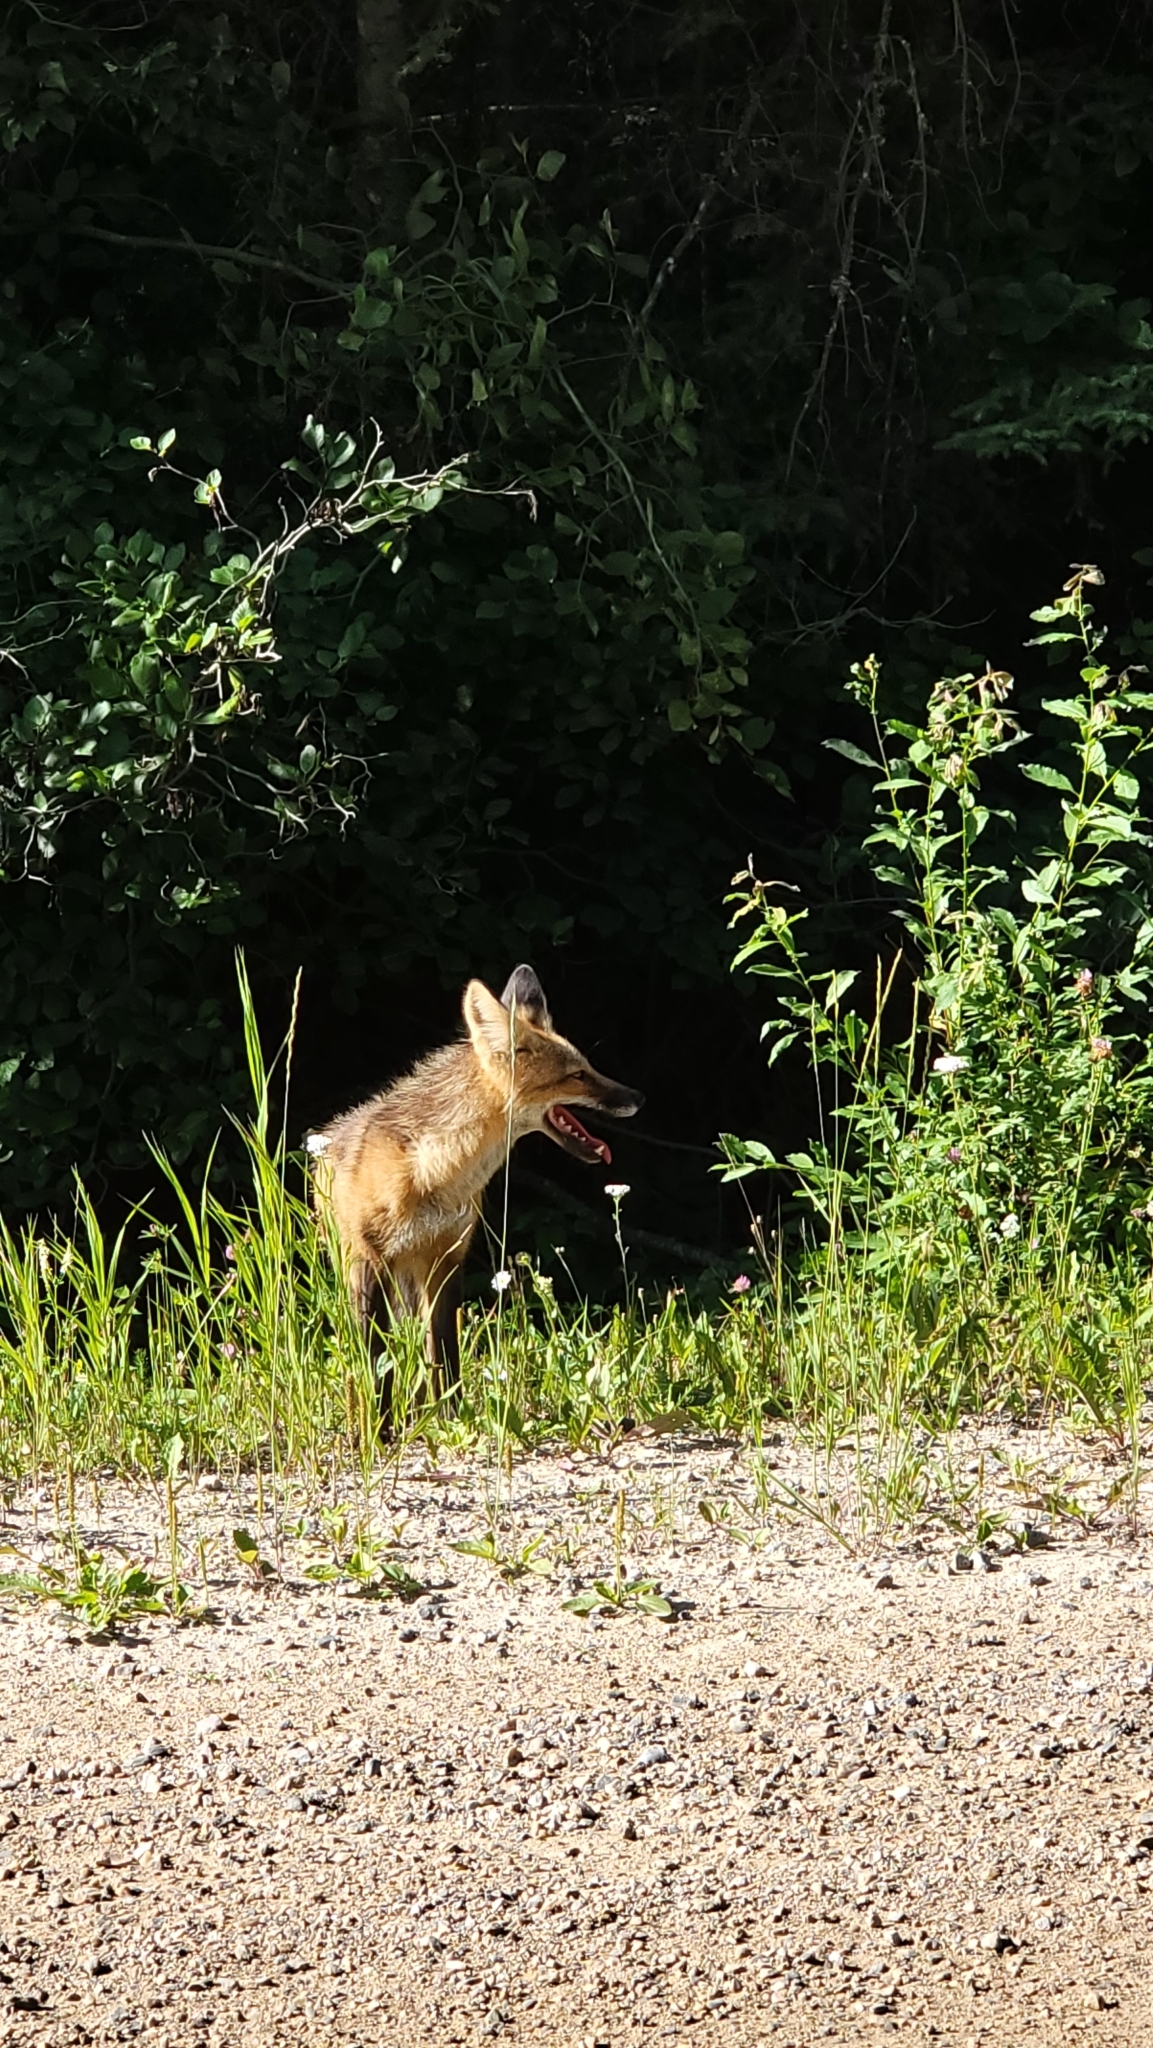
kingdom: Animalia
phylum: Chordata
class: Mammalia
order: Carnivora
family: Canidae
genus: Vulpes
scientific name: Vulpes vulpes
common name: Red fox
